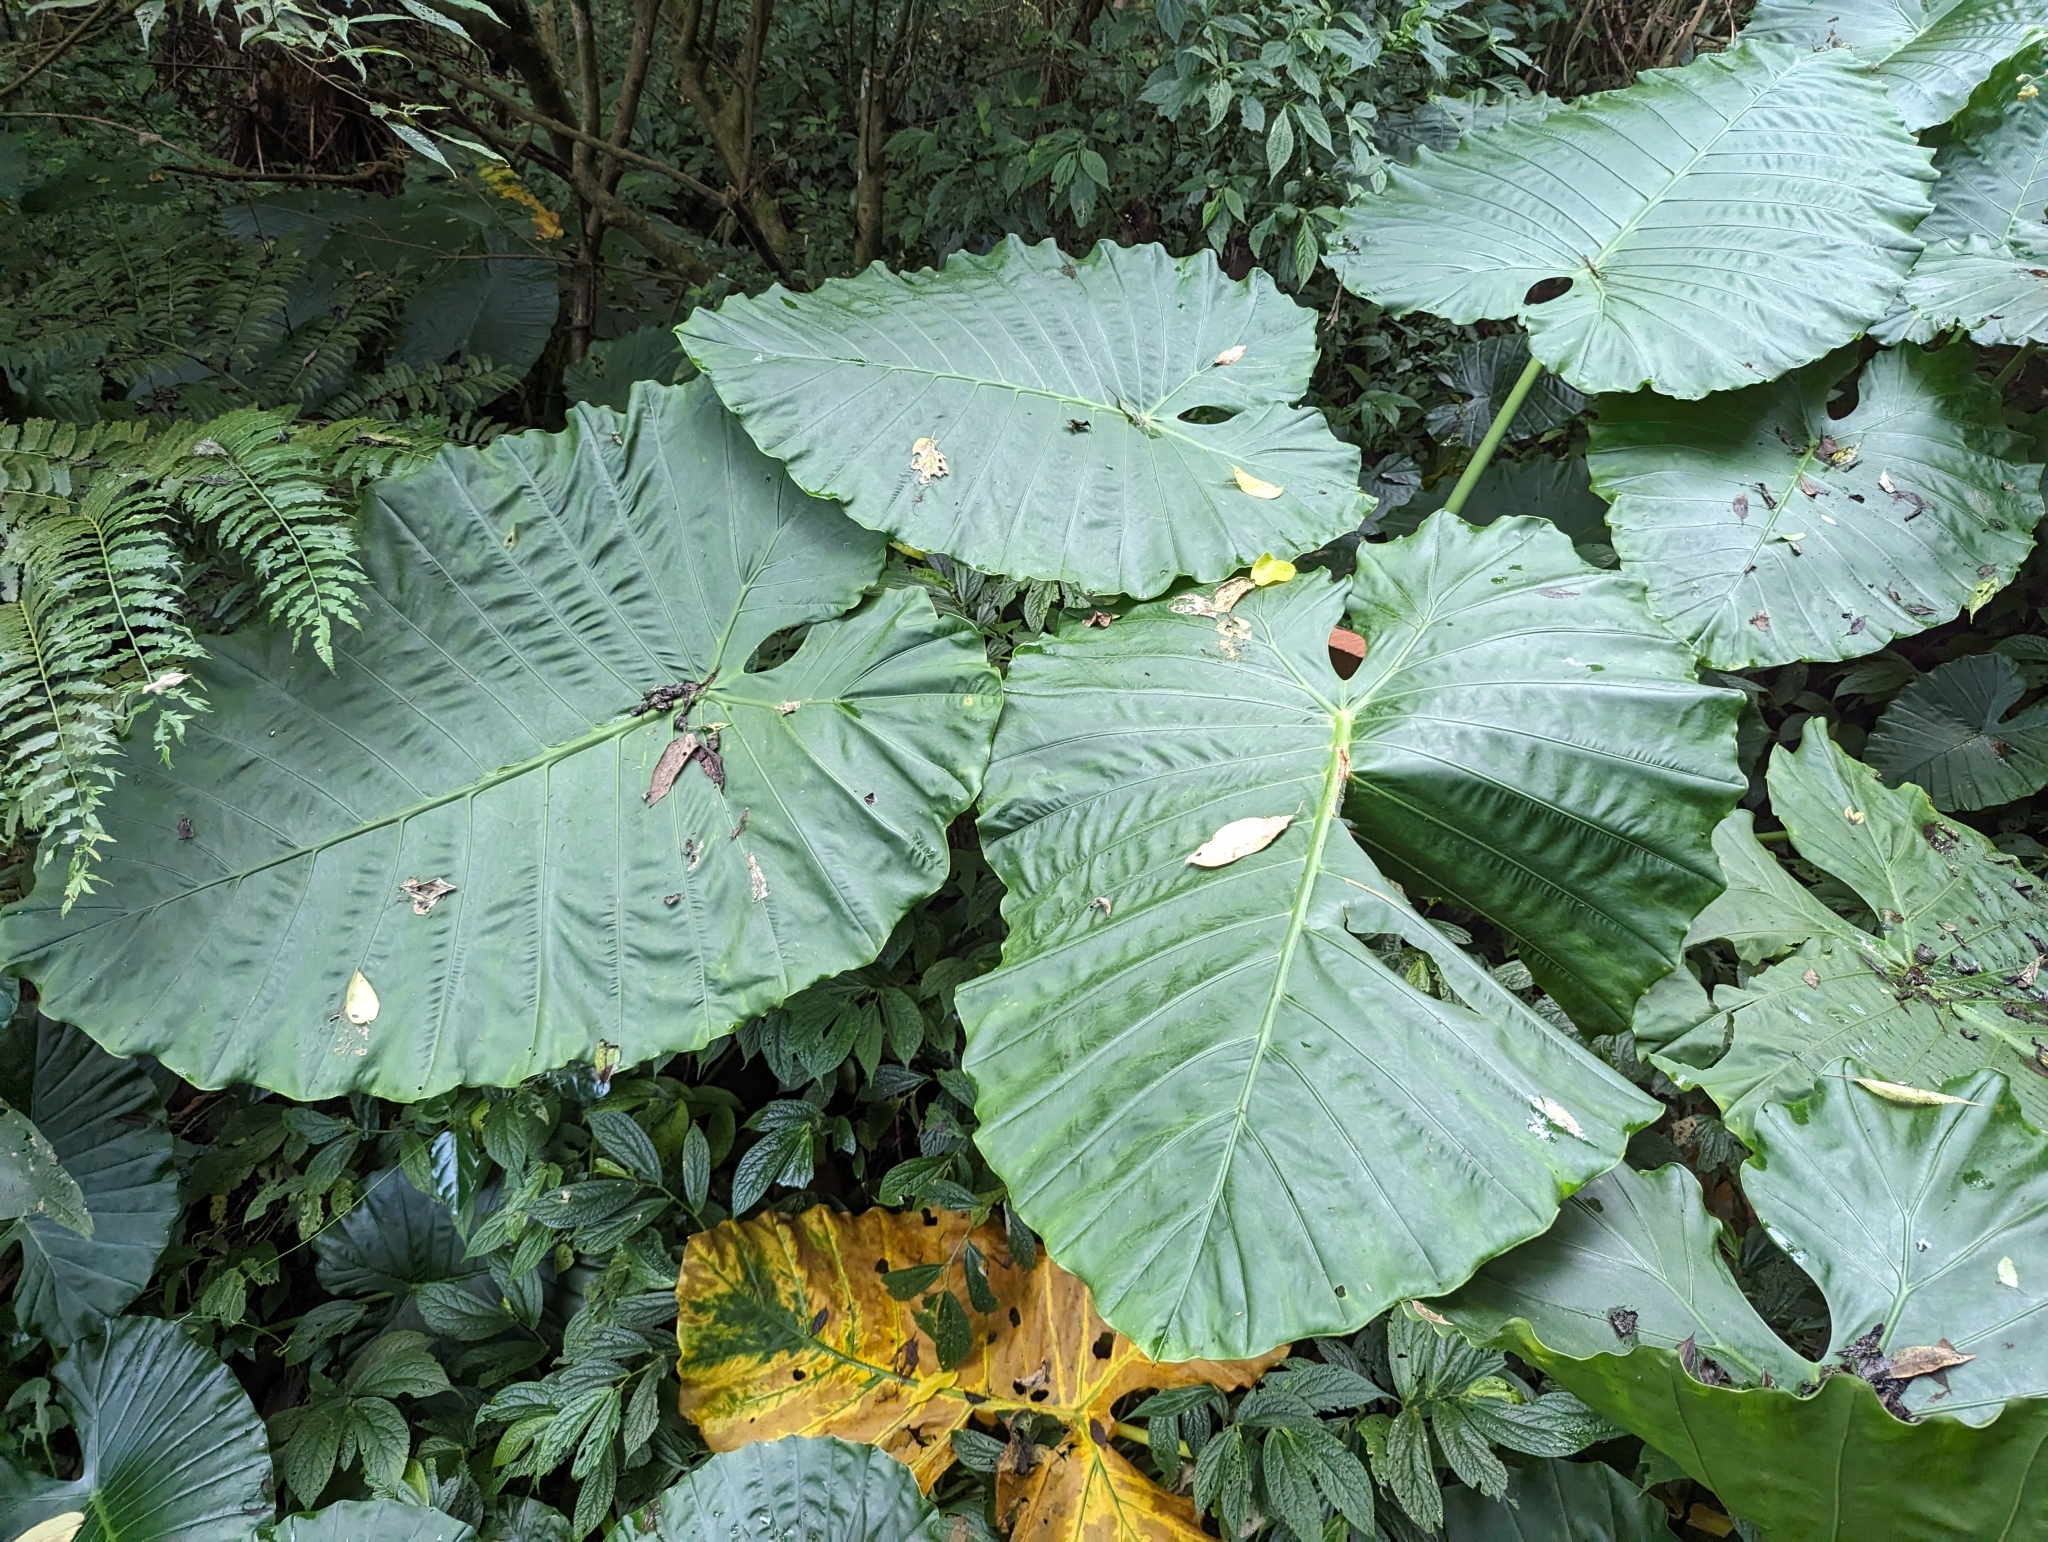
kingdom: Plantae
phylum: Tracheophyta
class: Liliopsida
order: Alismatales
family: Araceae
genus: Alocasia
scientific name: Alocasia odora
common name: Asian taro
